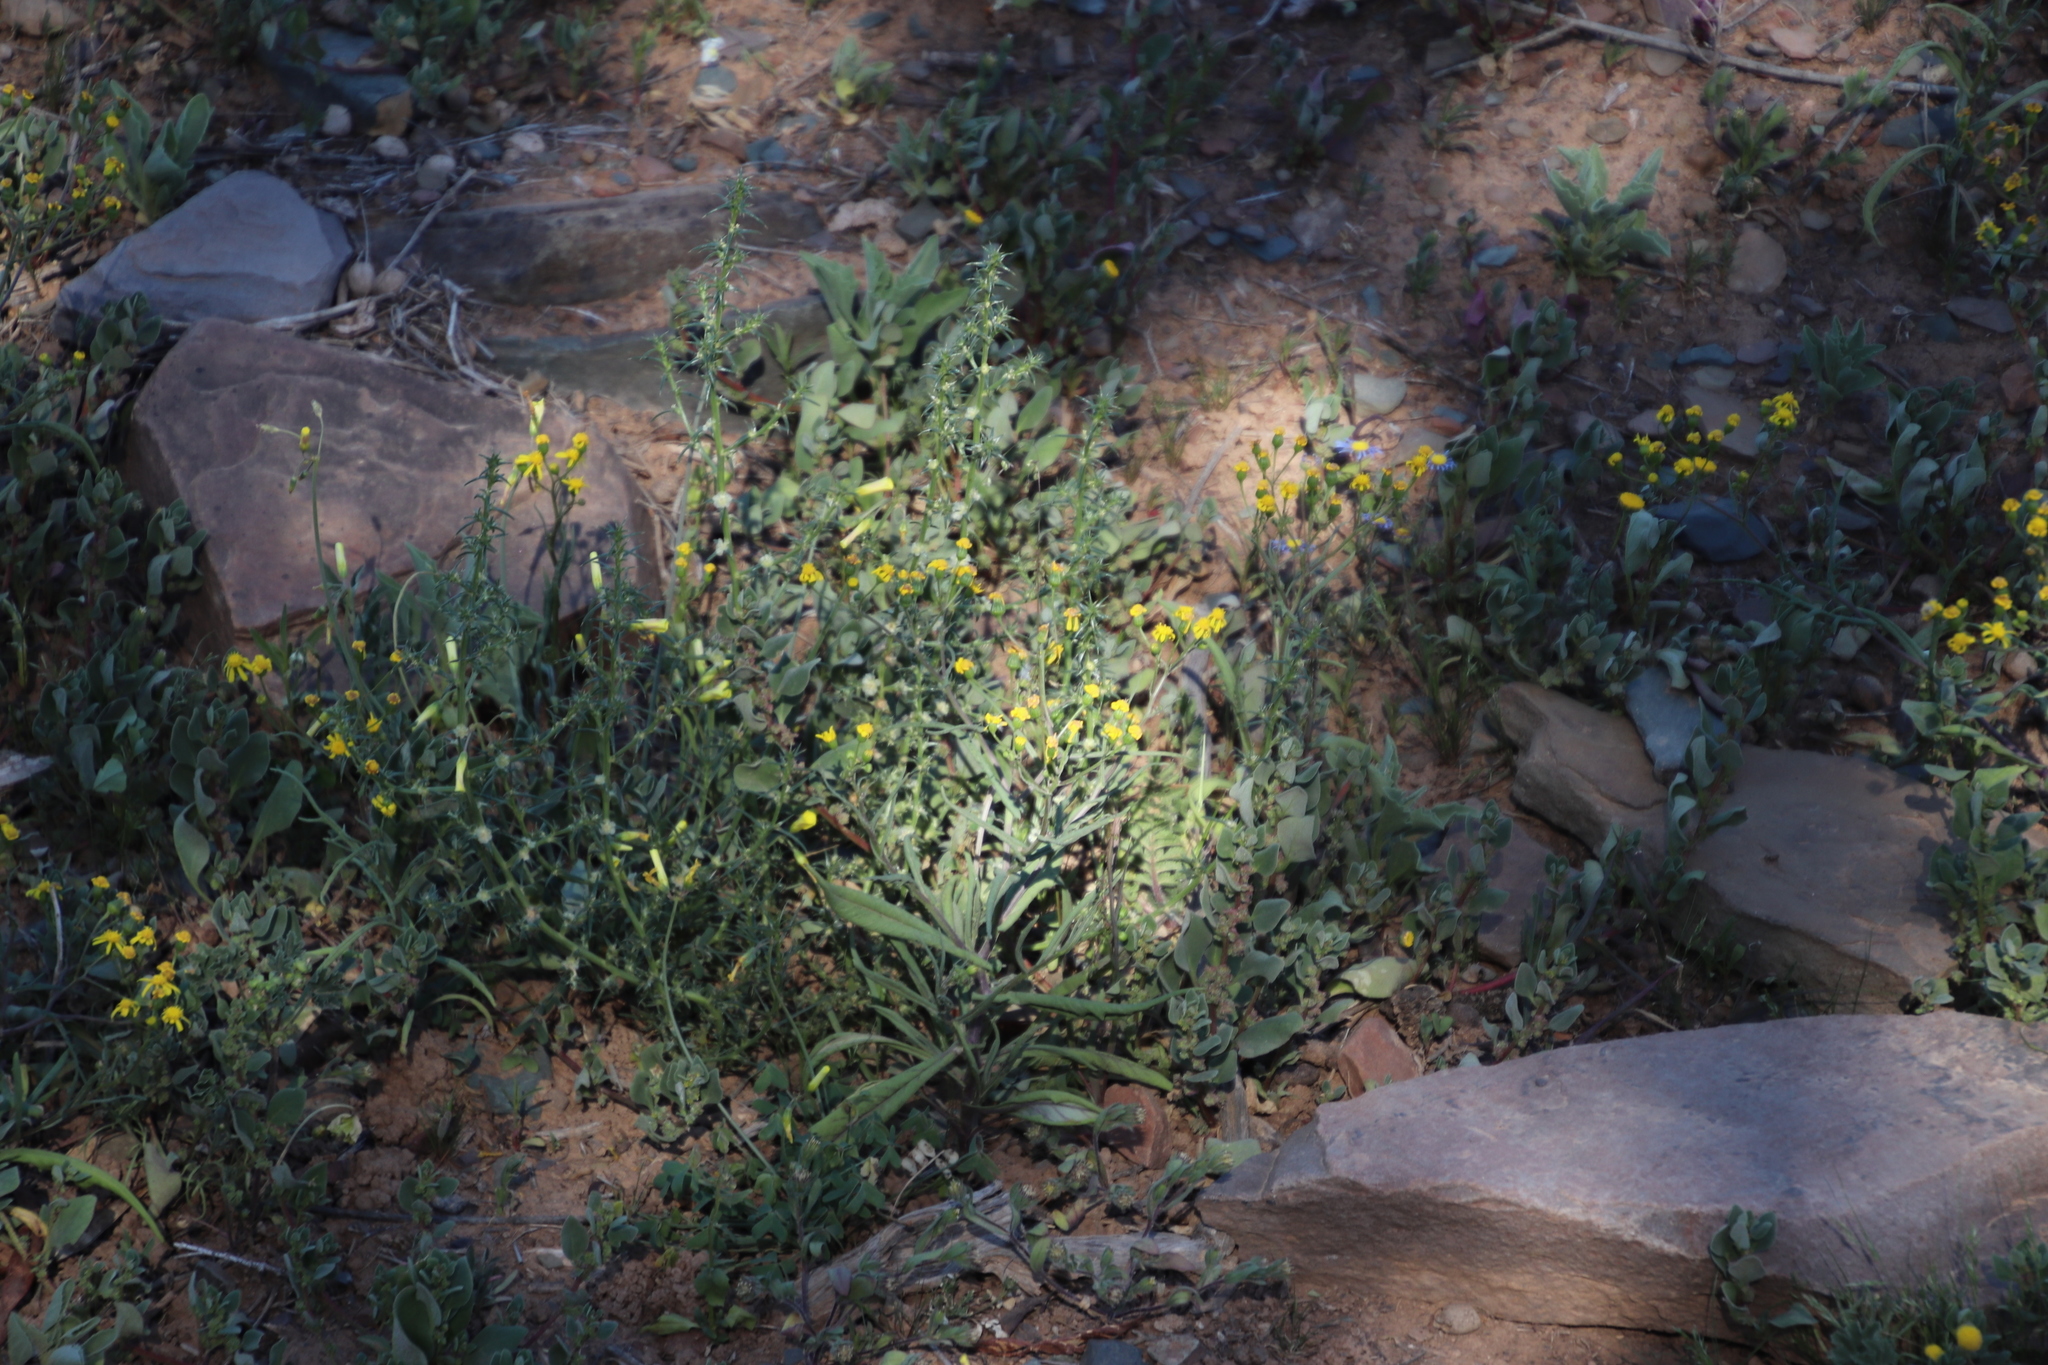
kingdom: Plantae
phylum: Tracheophyta
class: Magnoliopsida
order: Asterales
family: Asteraceae
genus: Senecio
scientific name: Senecio abruptus
